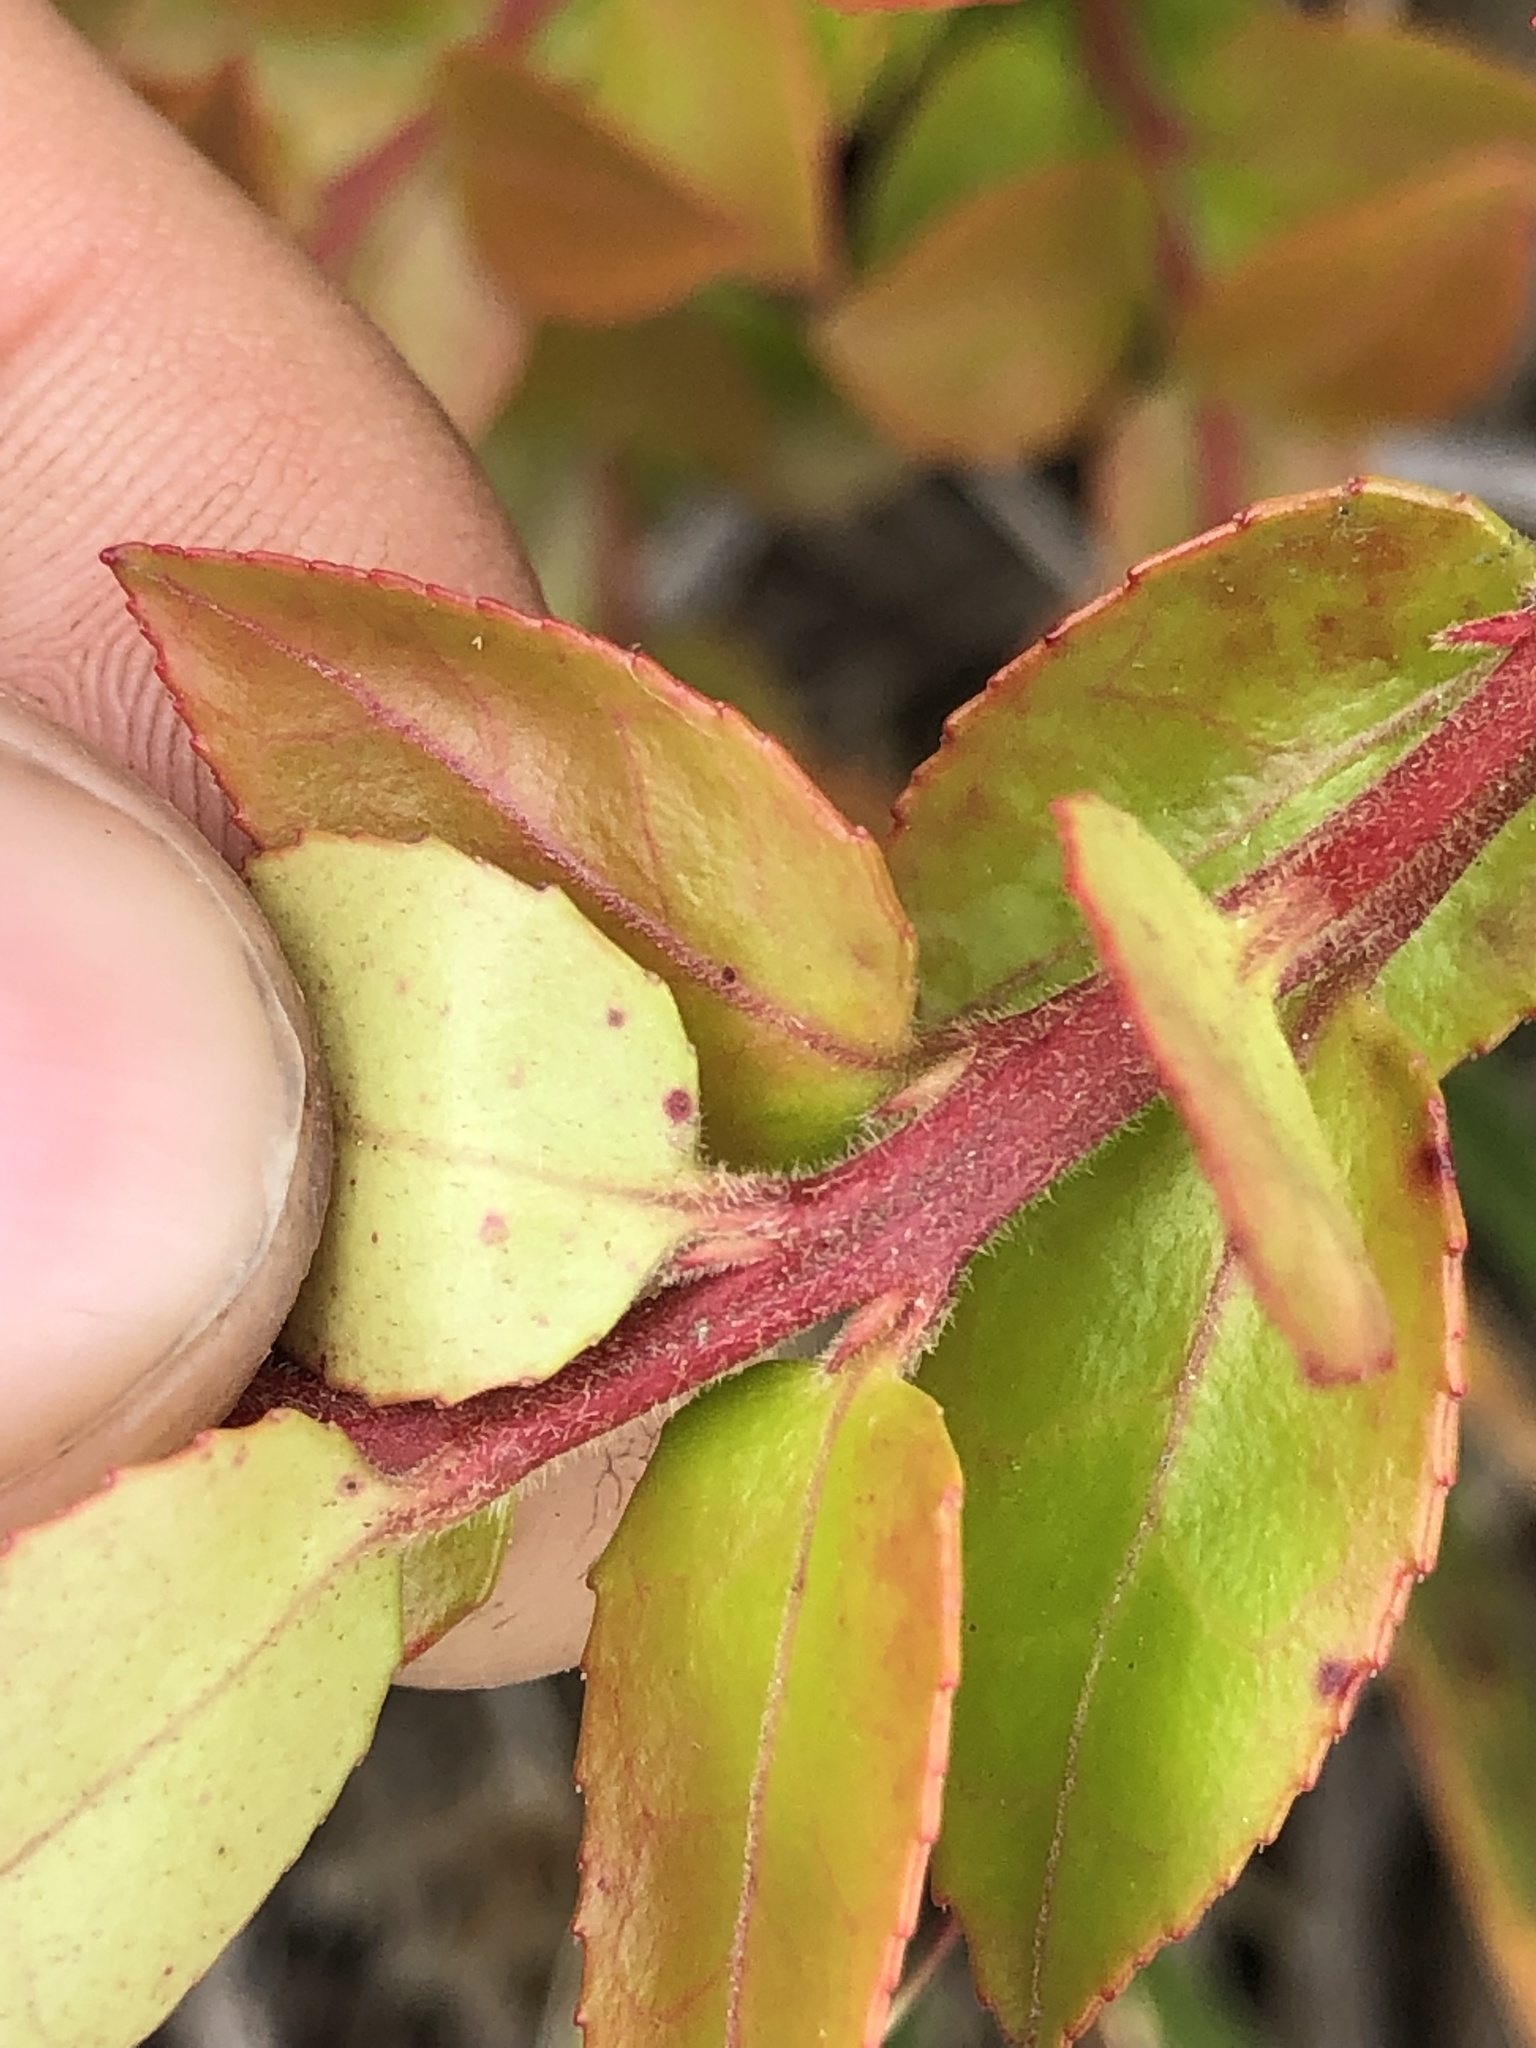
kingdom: Plantae
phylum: Tracheophyta
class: Magnoliopsida
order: Ericales
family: Ericaceae
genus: Vaccinium
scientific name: Vaccinium ovatum
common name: California-huckleberry
